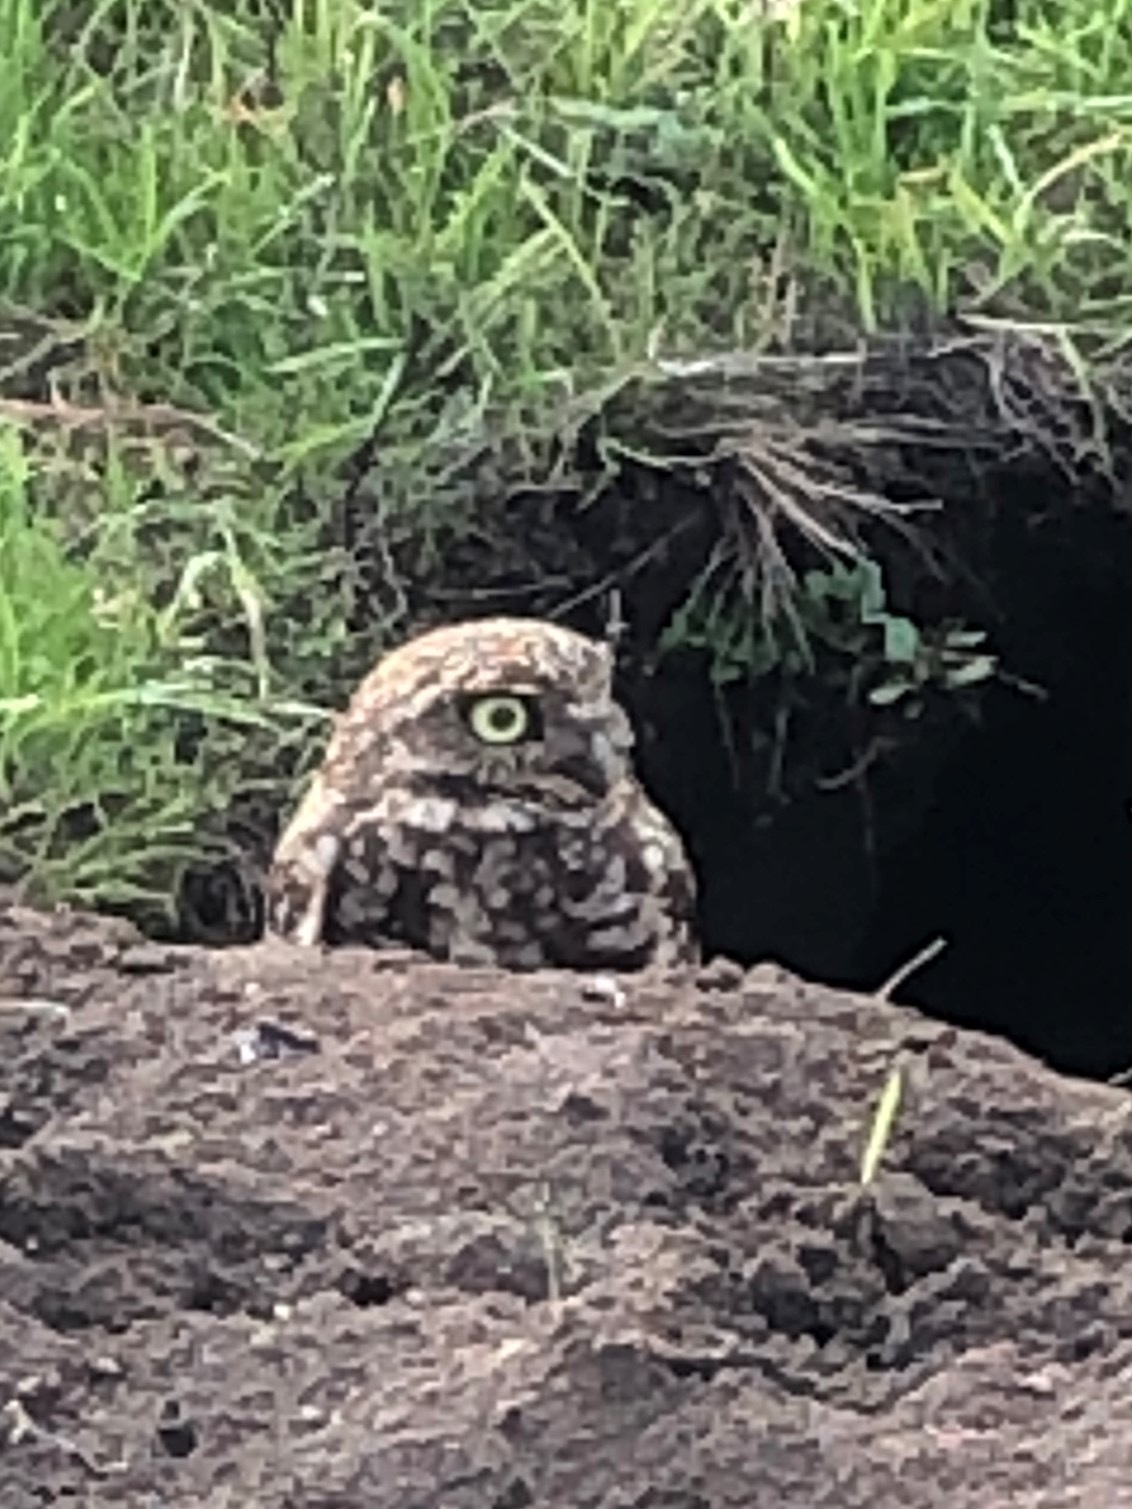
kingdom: Animalia
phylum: Chordata
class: Aves
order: Strigiformes
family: Strigidae
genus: Athene
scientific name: Athene cunicularia
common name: Burrowing owl
